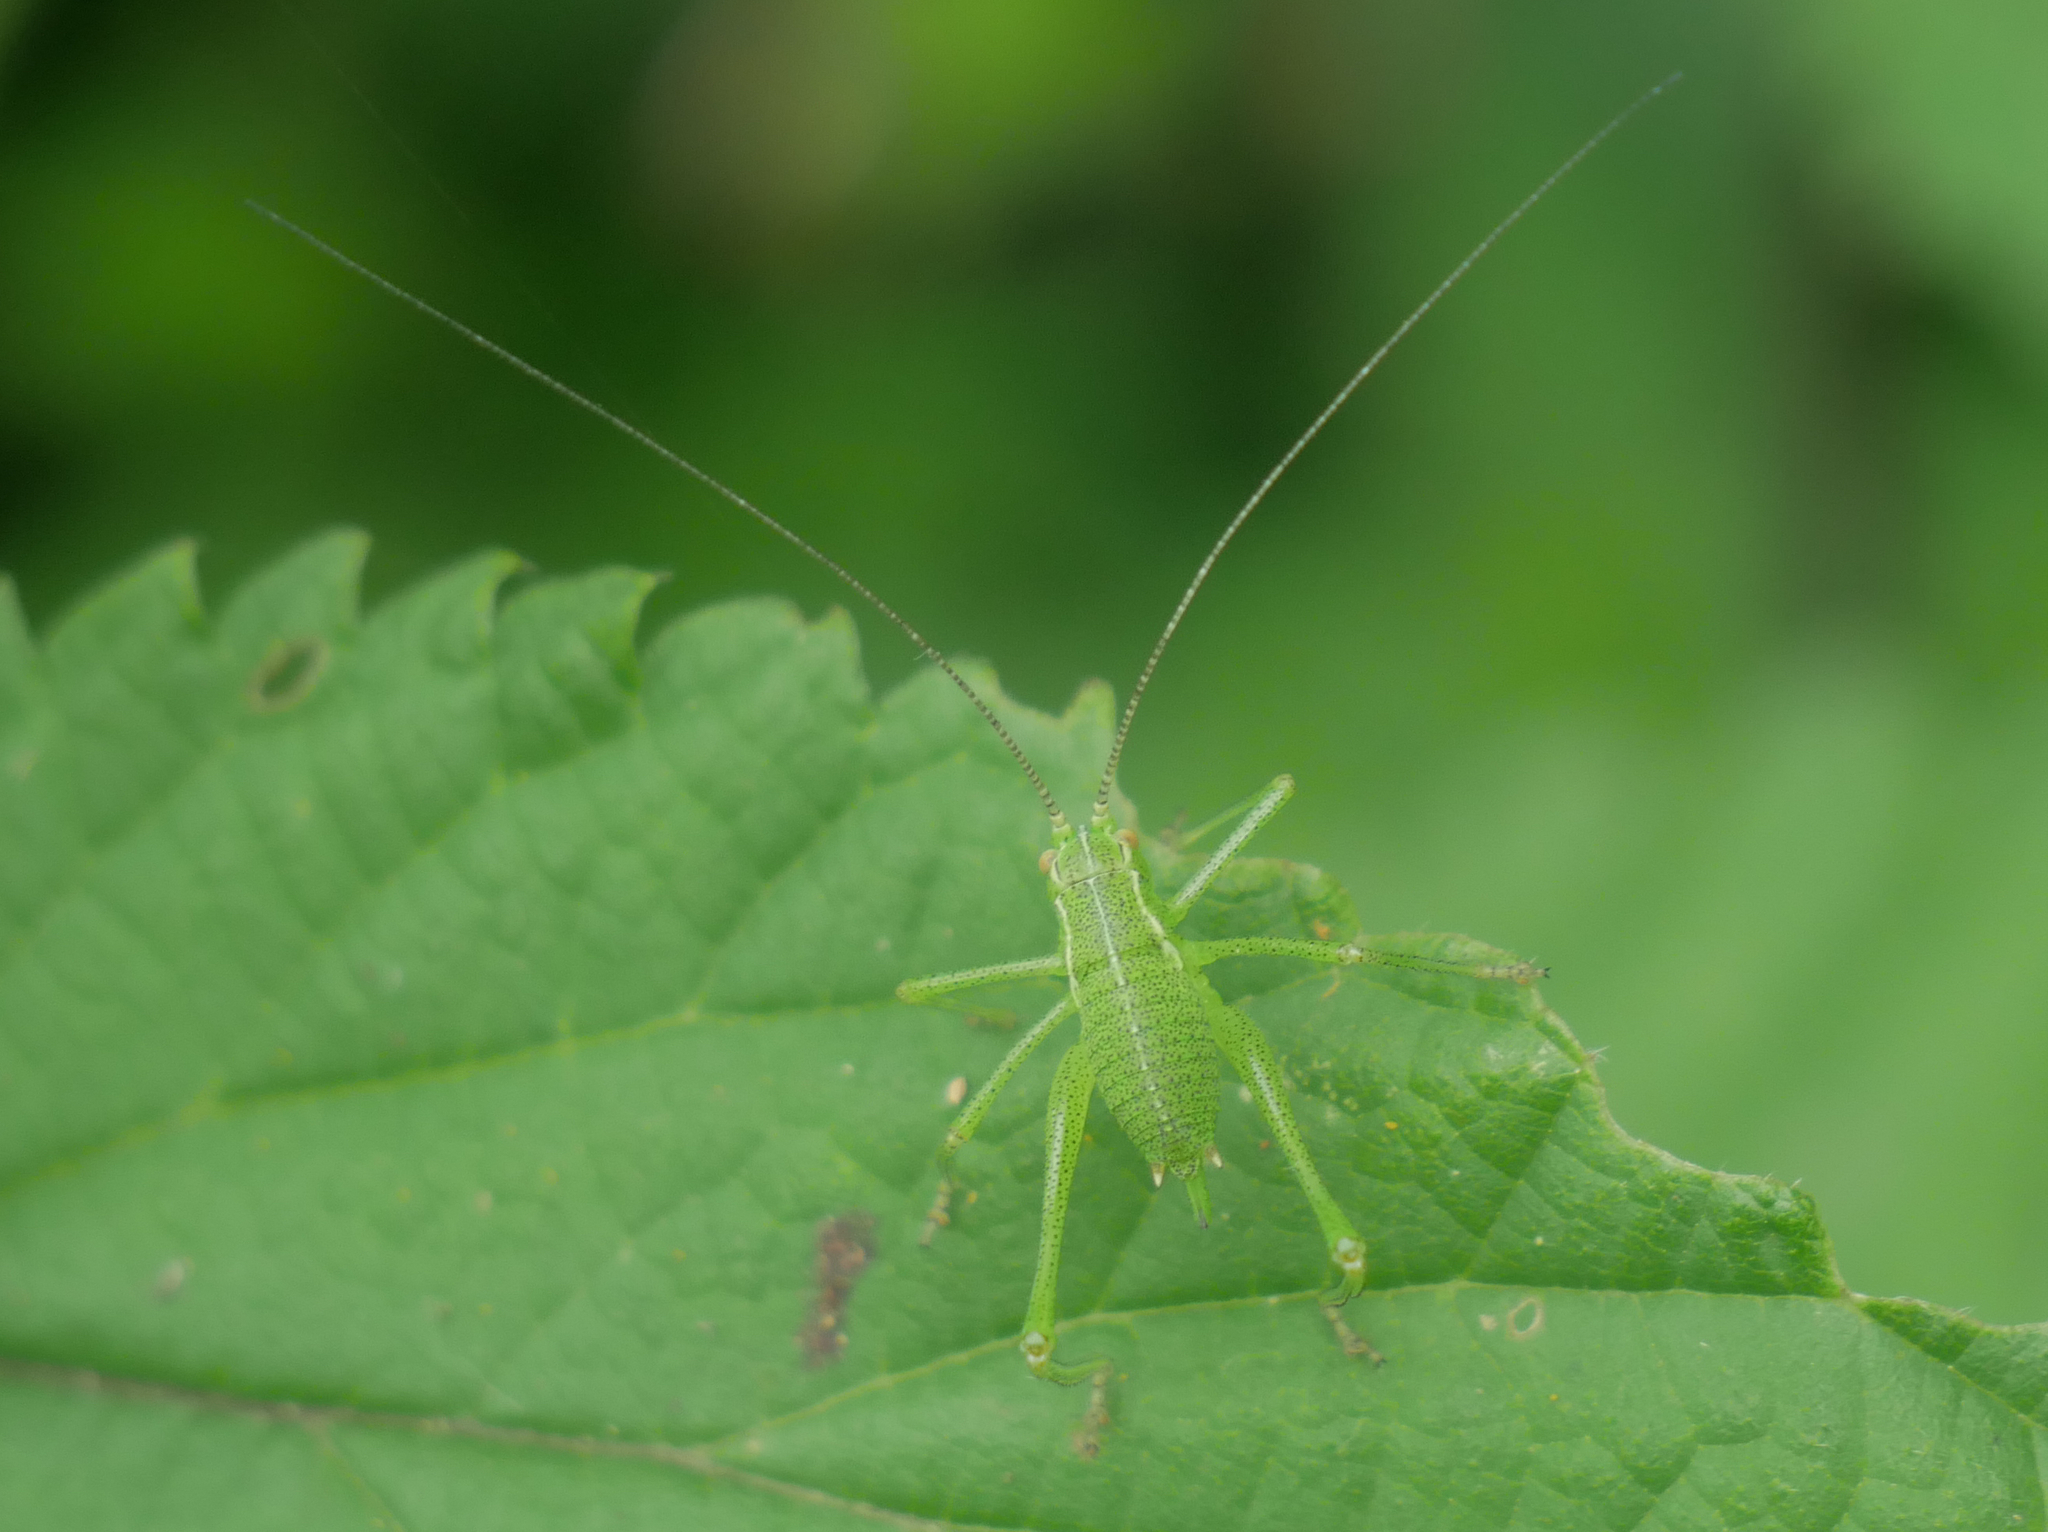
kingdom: Animalia
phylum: Arthropoda
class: Insecta
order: Orthoptera
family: Tettigoniidae
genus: Leptophyes
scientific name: Leptophyes punctatissima
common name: Speckled bush-cricket
